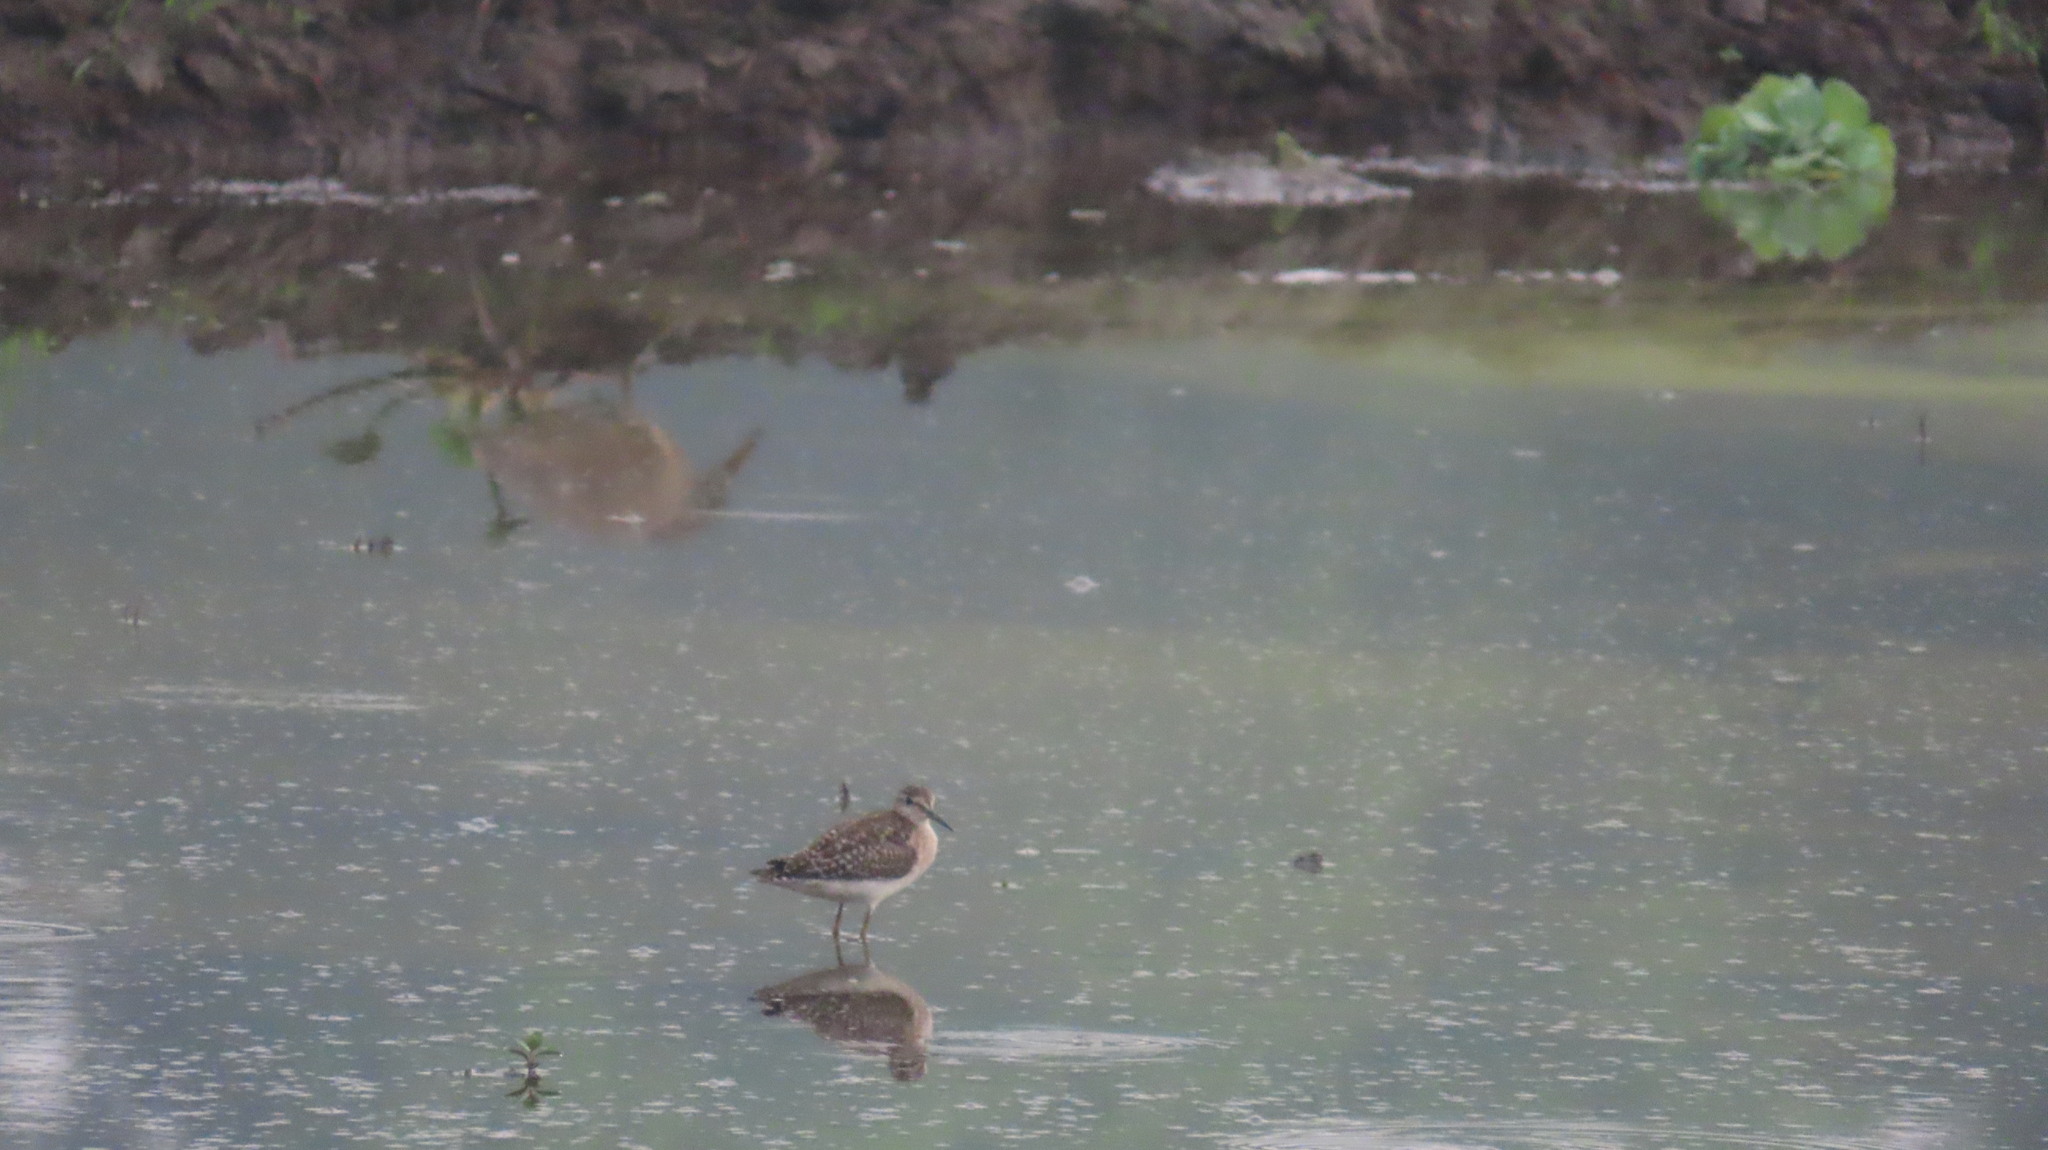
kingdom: Animalia
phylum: Chordata
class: Aves
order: Charadriiformes
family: Scolopacidae
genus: Tringa
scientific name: Tringa glareola
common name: Wood sandpiper
